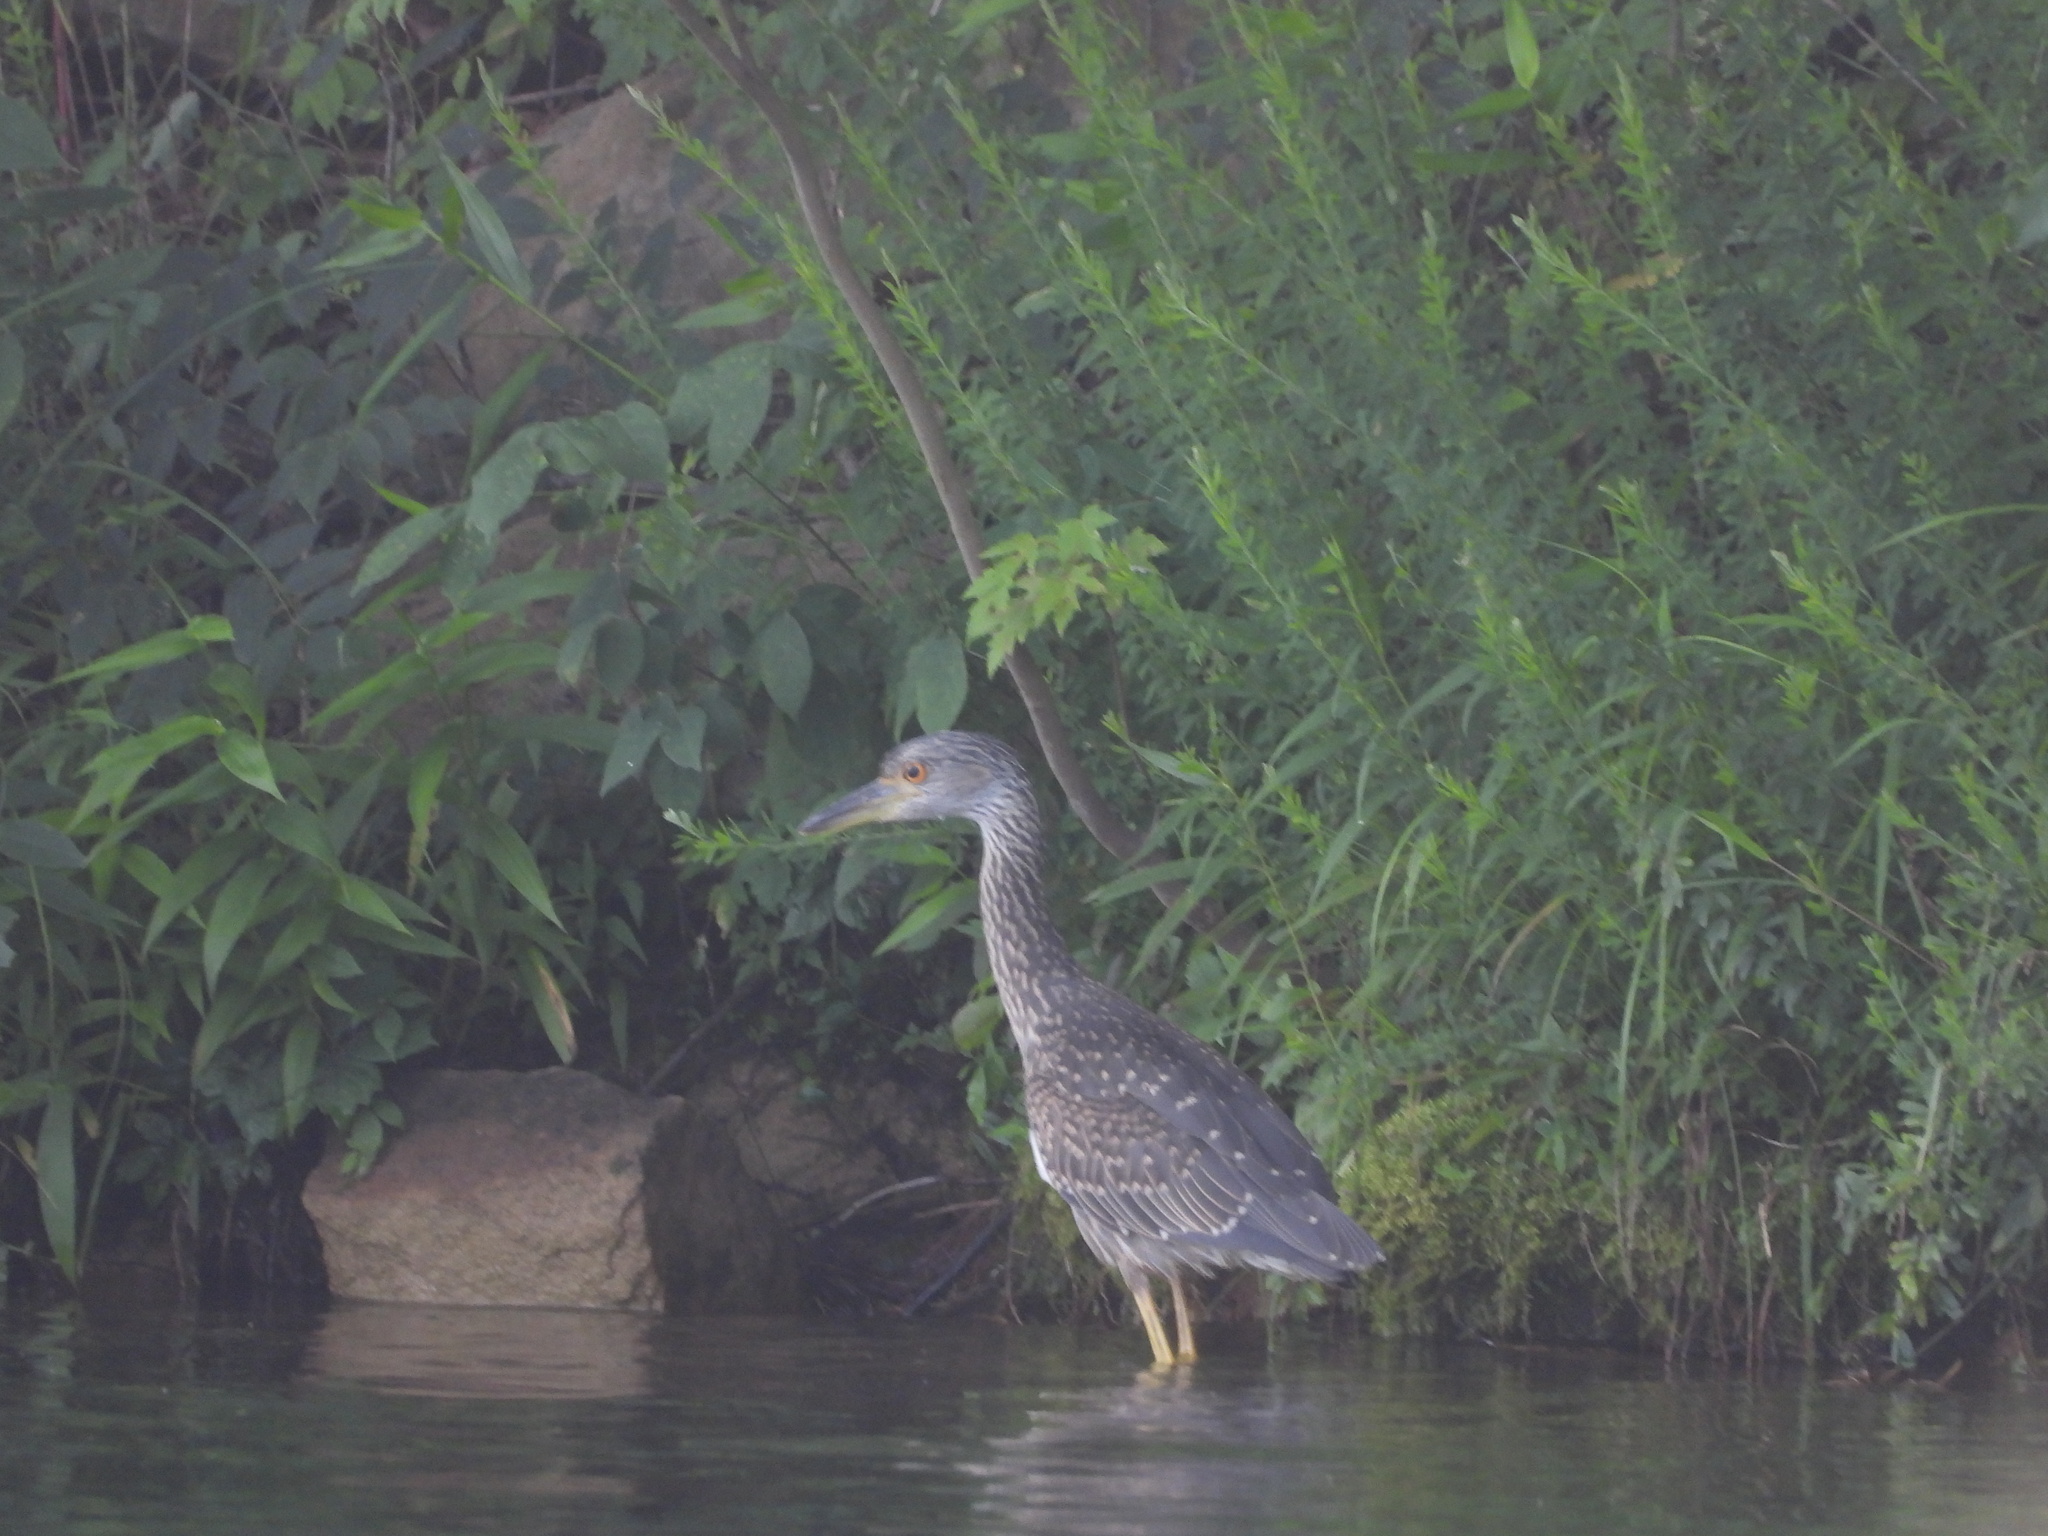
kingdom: Animalia
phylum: Chordata
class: Aves
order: Pelecaniformes
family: Ardeidae
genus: Nyctanassa
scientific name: Nyctanassa violacea
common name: Yellow-crowned night heron
